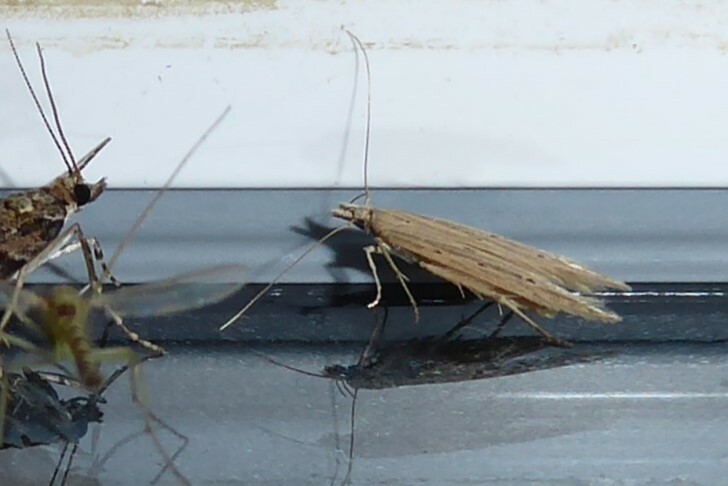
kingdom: Animalia
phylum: Arthropoda
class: Insecta
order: Lepidoptera
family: Gelechiidae
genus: Epiphthora
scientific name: Epiphthora calamogonus
